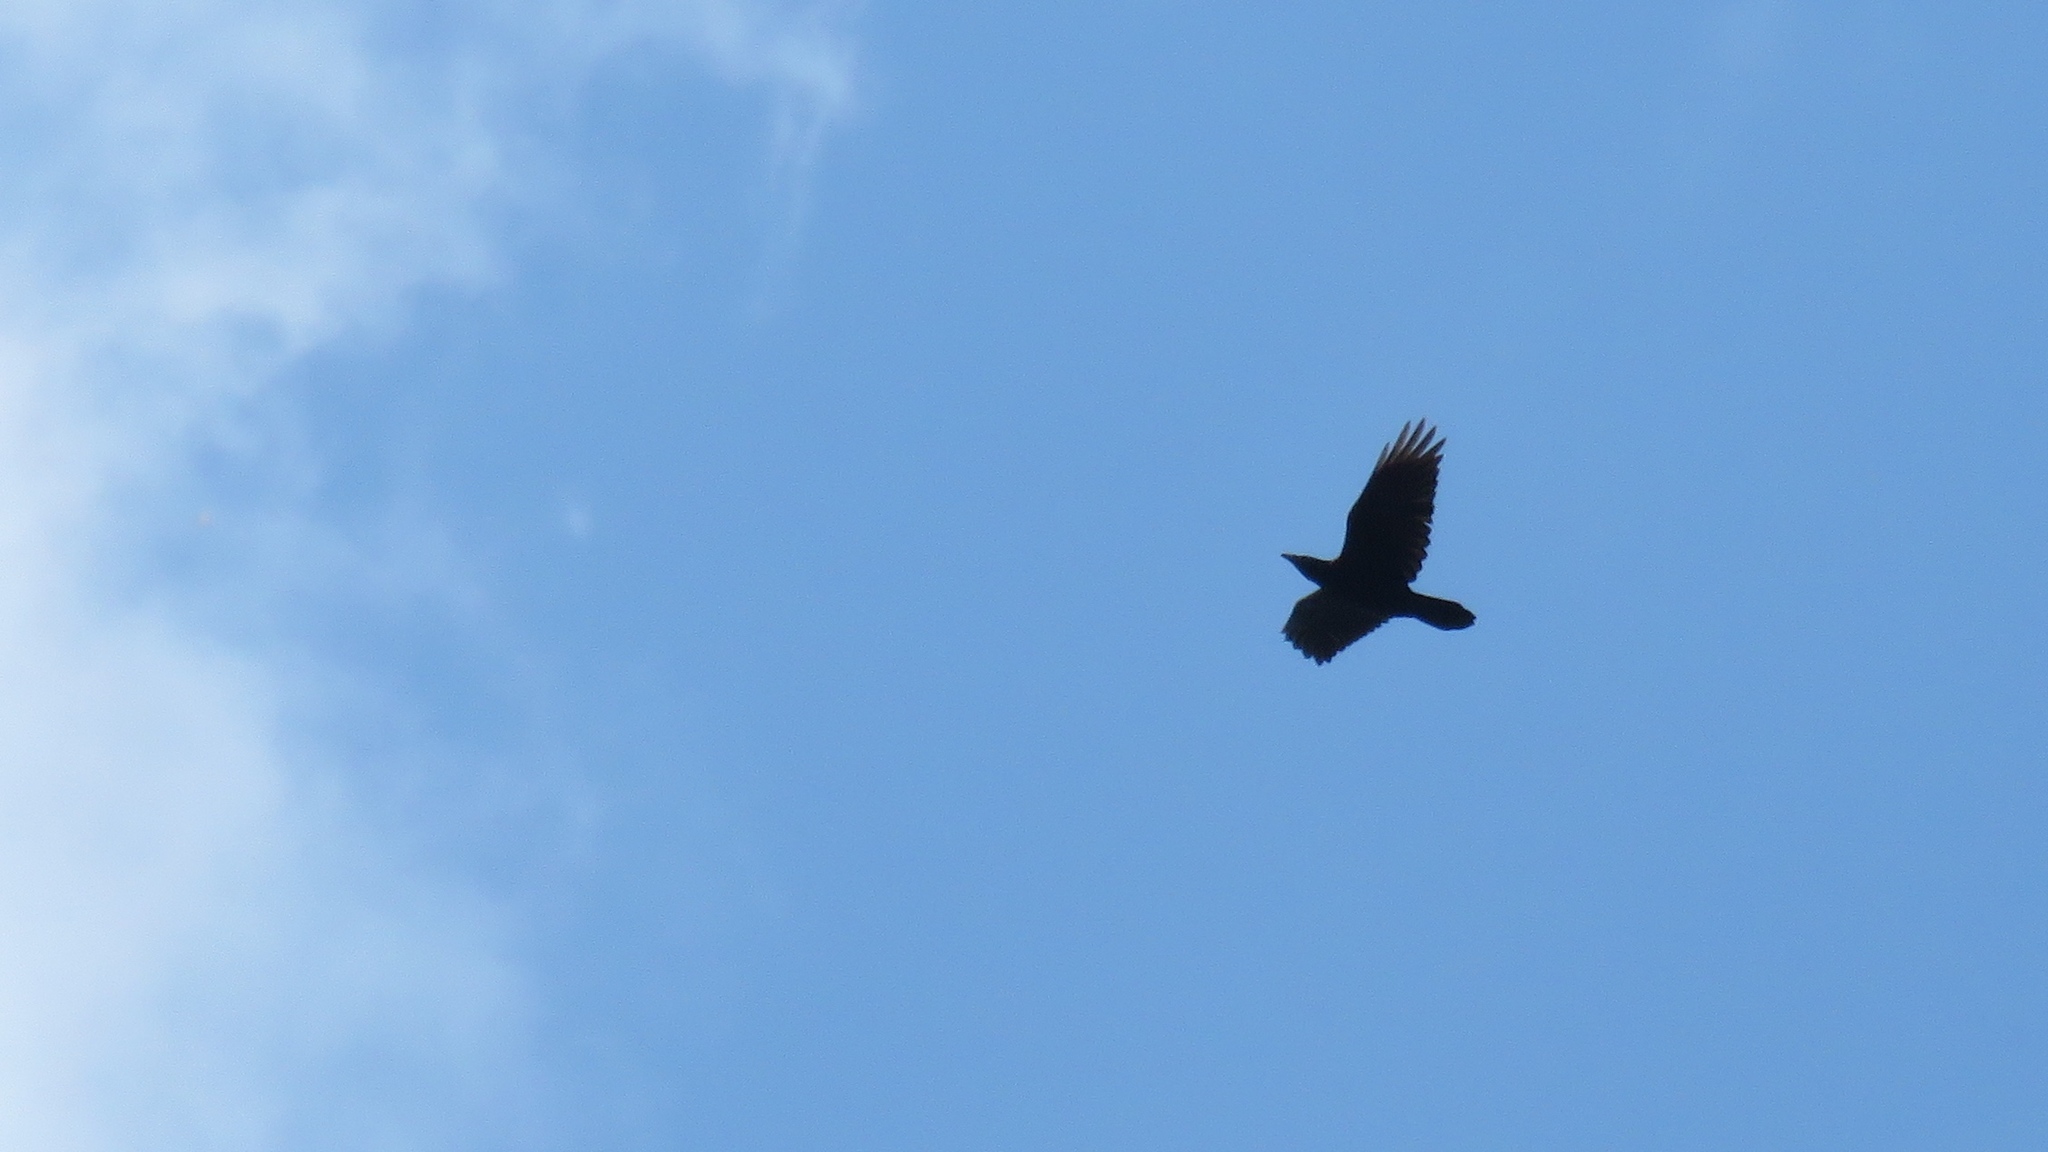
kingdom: Animalia
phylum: Chordata
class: Aves
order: Passeriformes
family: Corvidae
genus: Corvus
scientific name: Corvus corax
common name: Common raven
